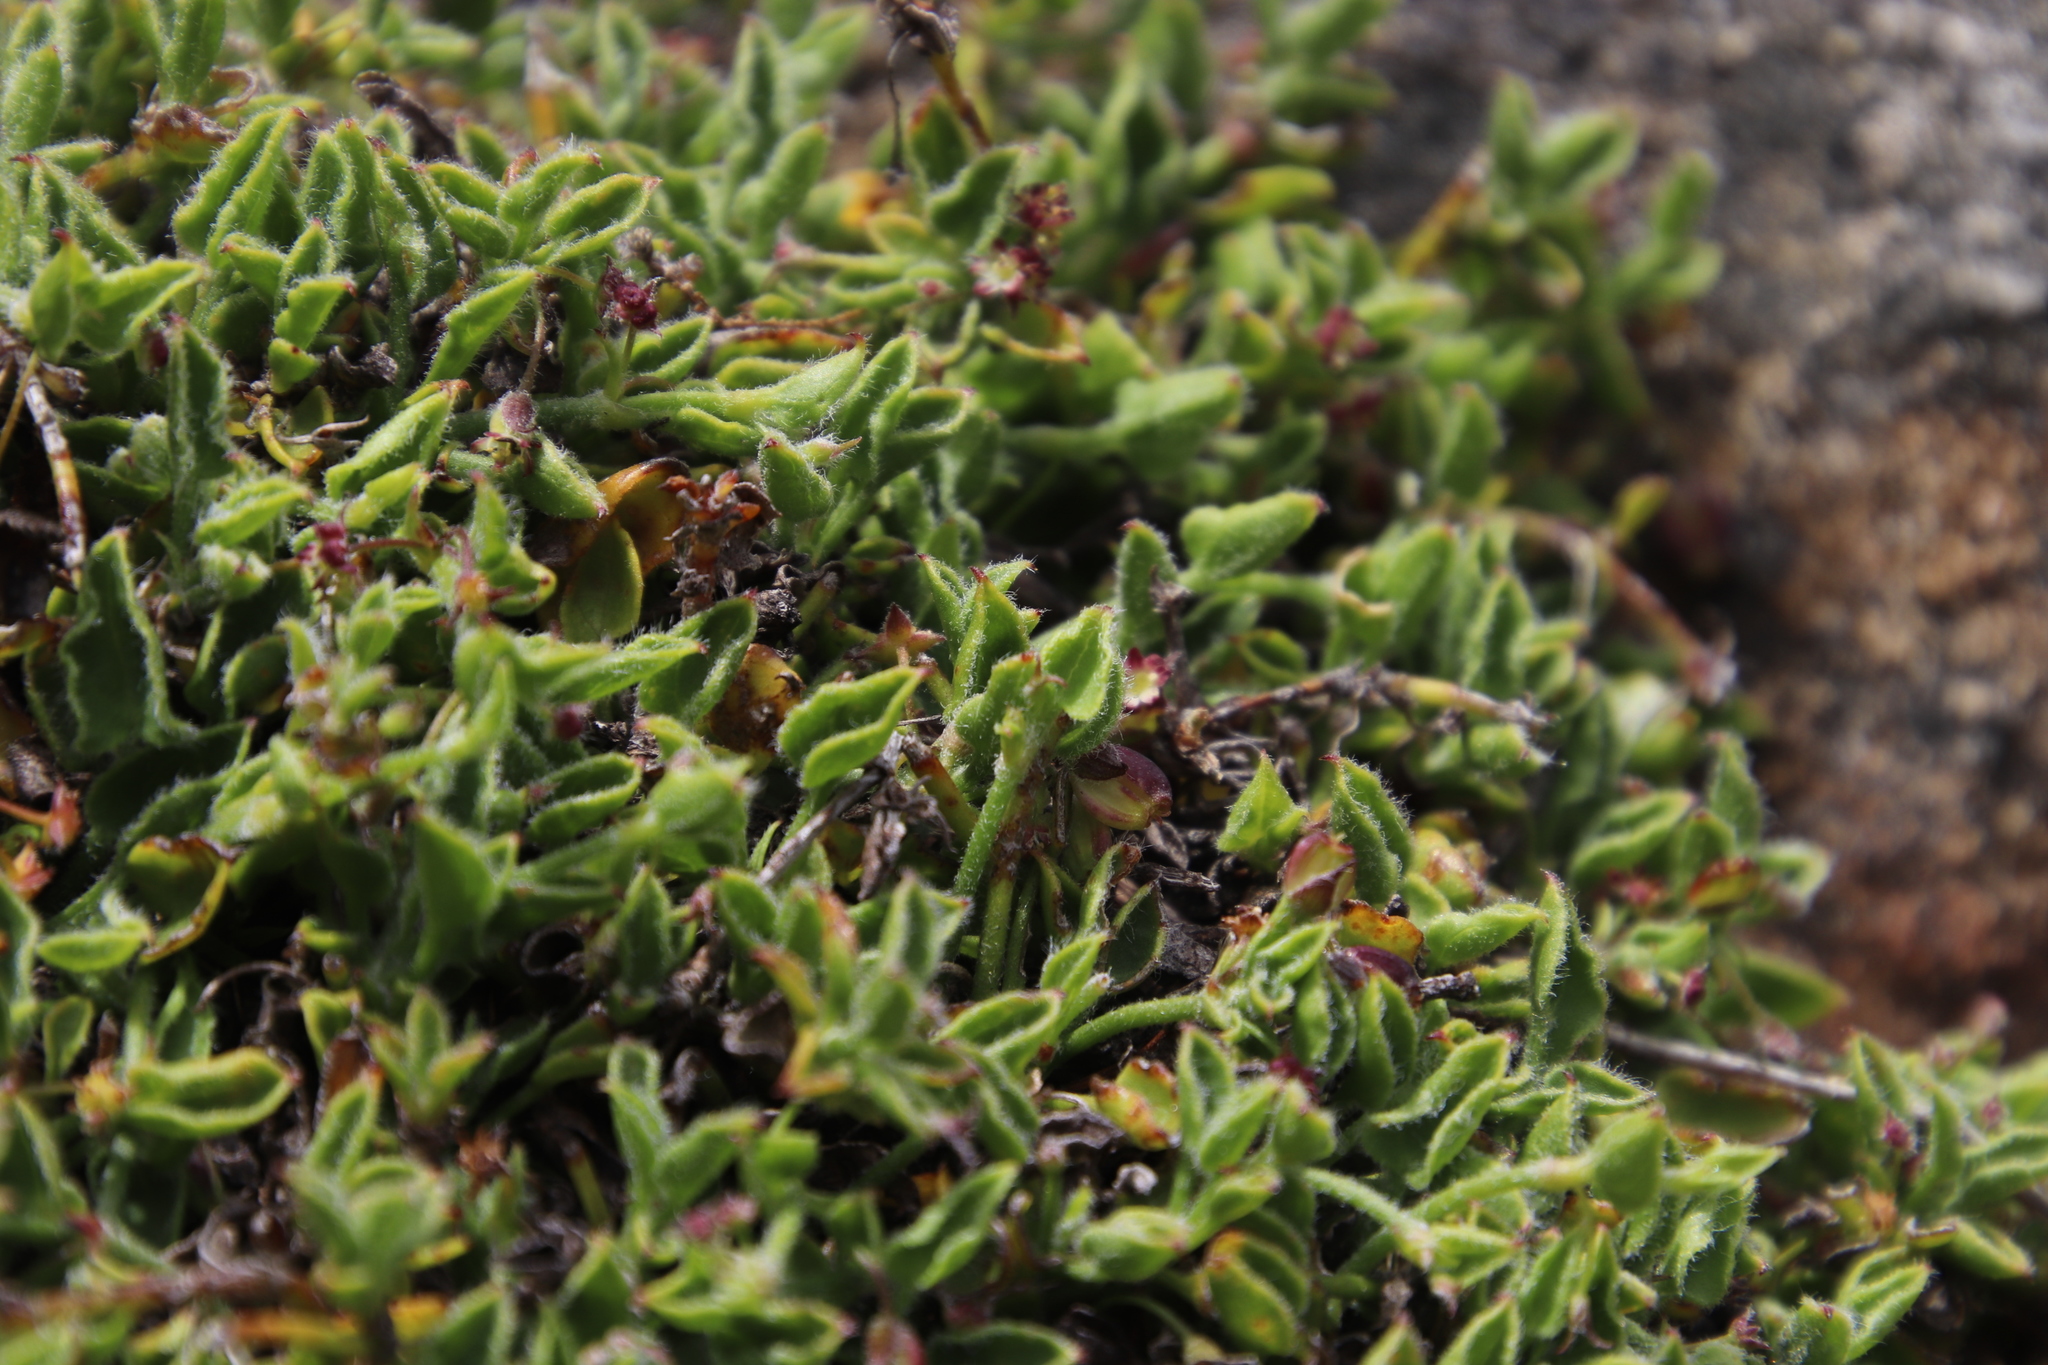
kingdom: Plantae
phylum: Tracheophyta
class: Magnoliopsida
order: Apiales
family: Apiaceae
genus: Centella
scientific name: Centella villosa
